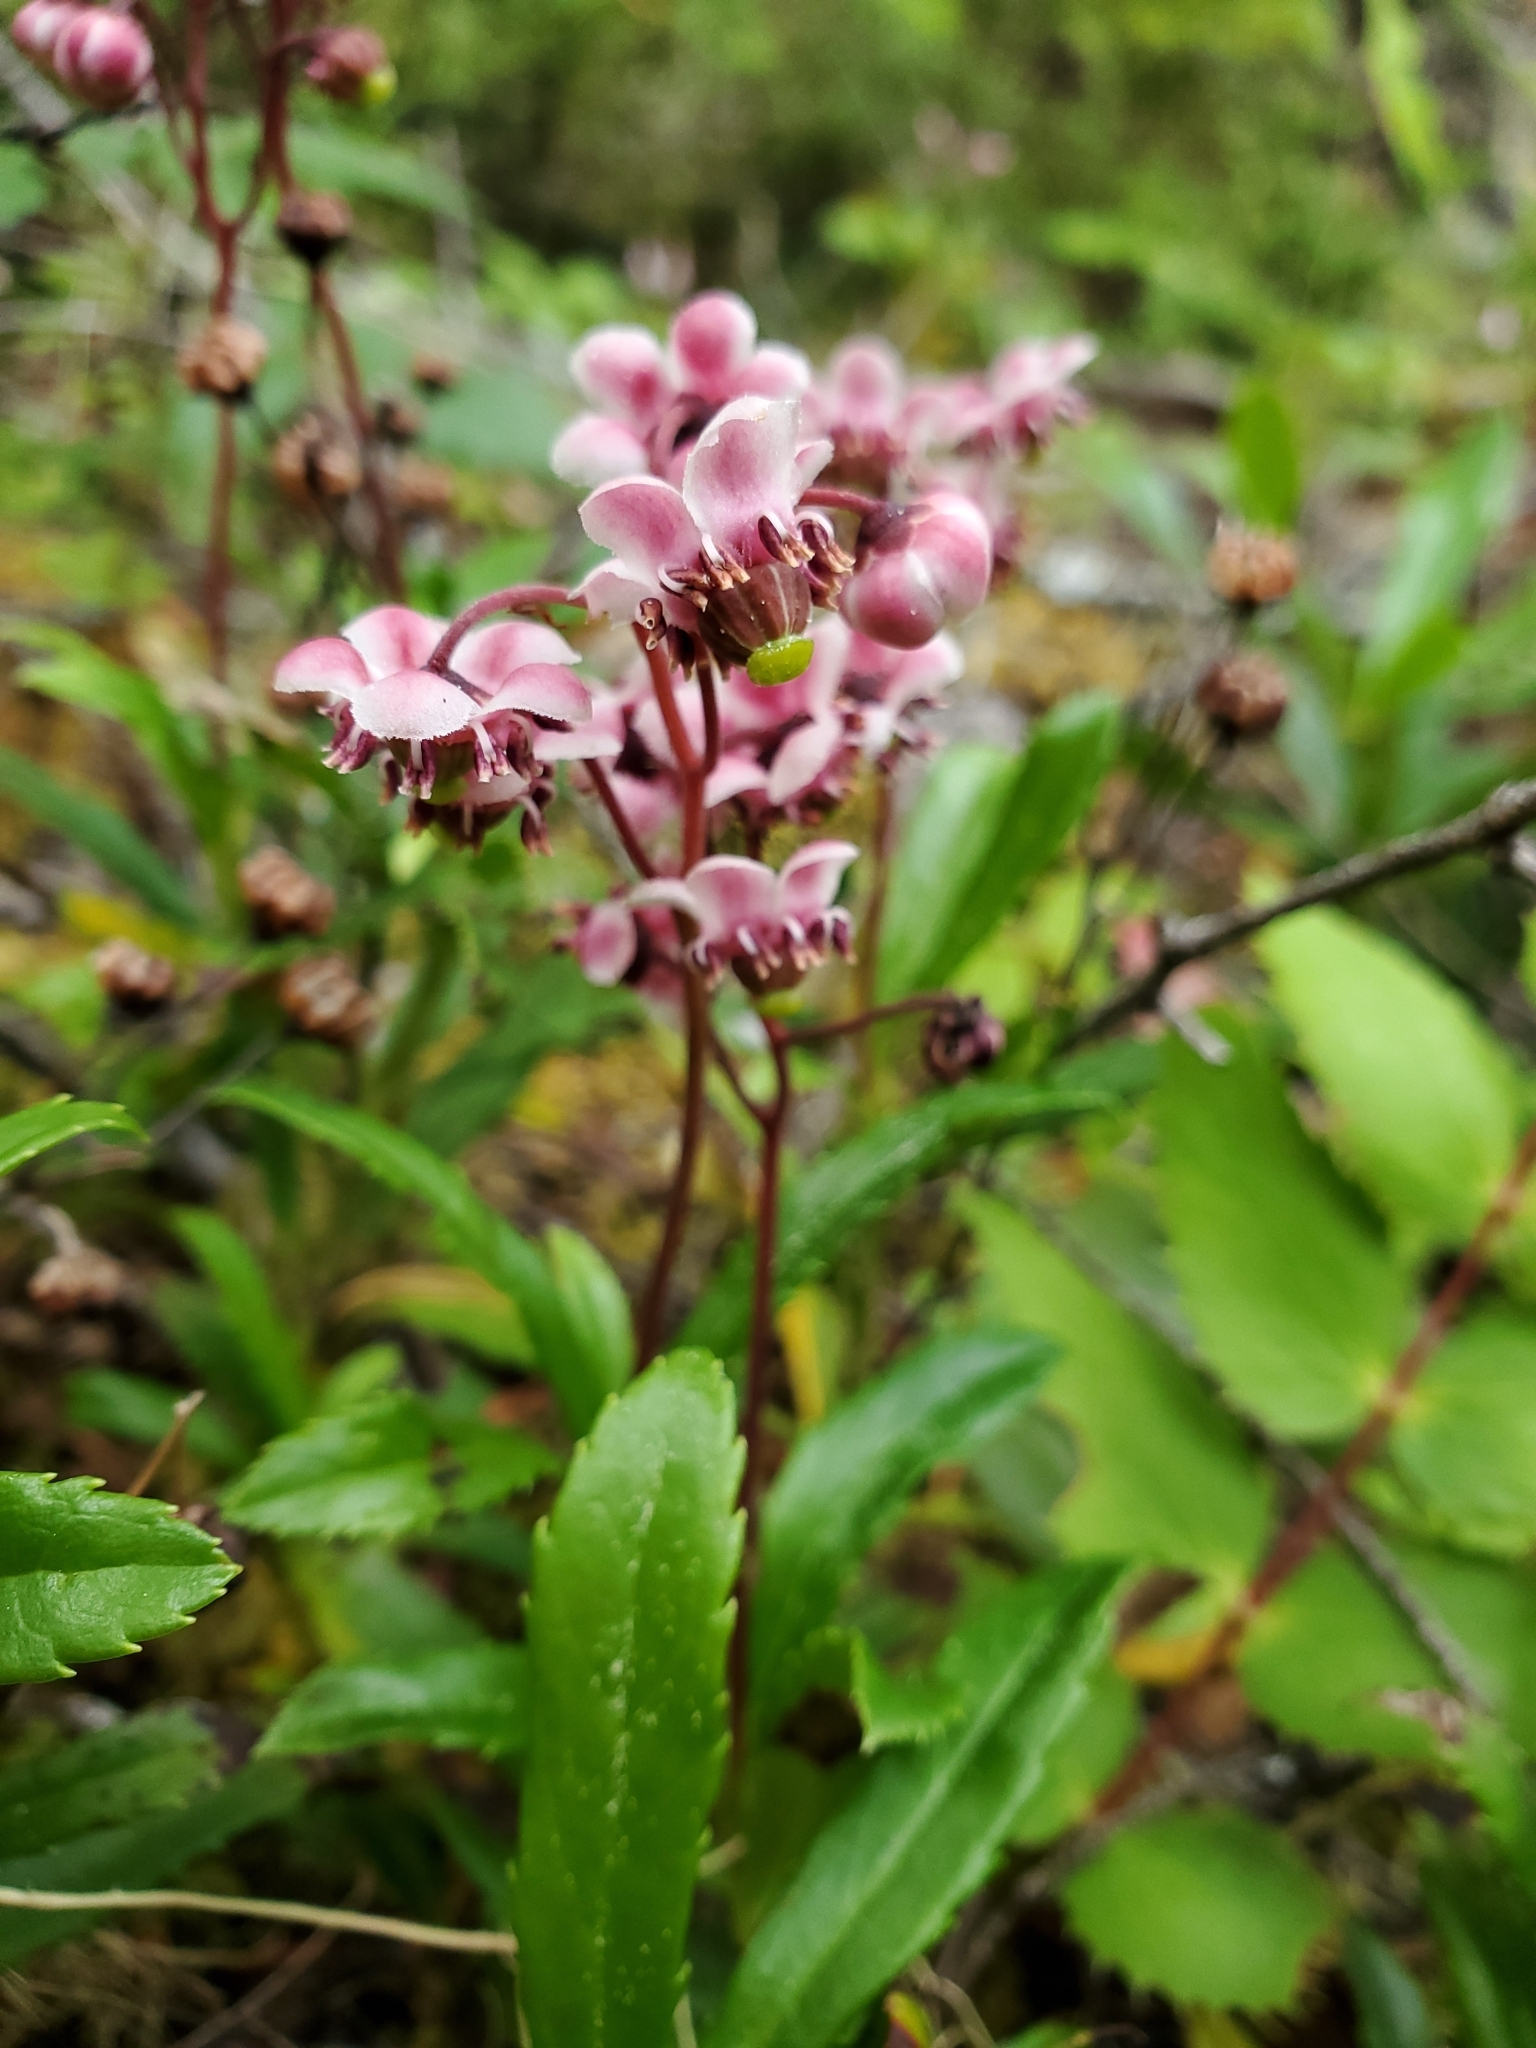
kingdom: Plantae
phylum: Tracheophyta
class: Magnoliopsida
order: Ericales
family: Ericaceae
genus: Chimaphila
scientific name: Chimaphila umbellata
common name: Pipsissewa
